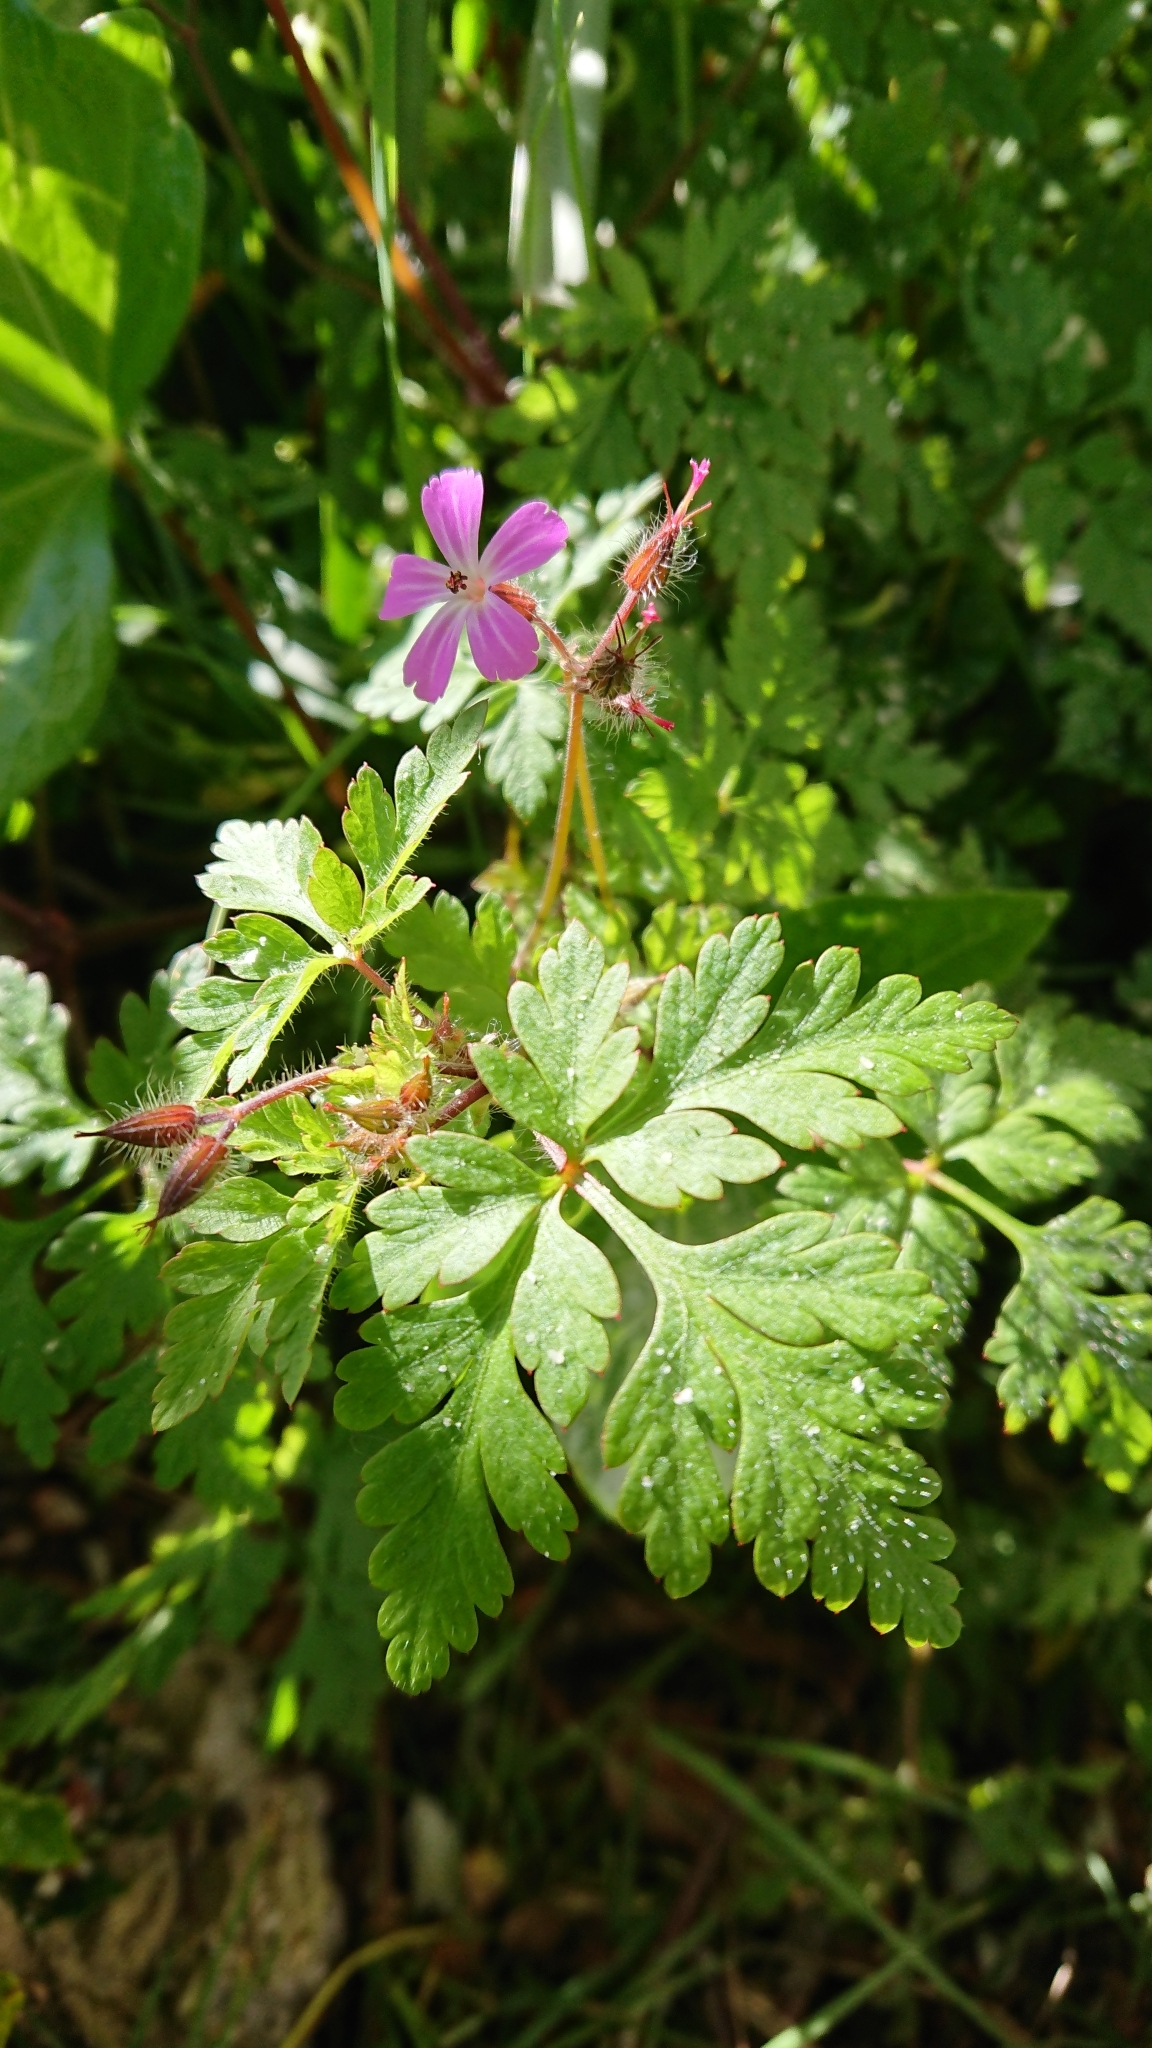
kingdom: Plantae
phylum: Tracheophyta
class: Magnoliopsida
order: Geraniales
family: Geraniaceae
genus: Geranium
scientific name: Geranium robertianum
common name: Herb-robert
